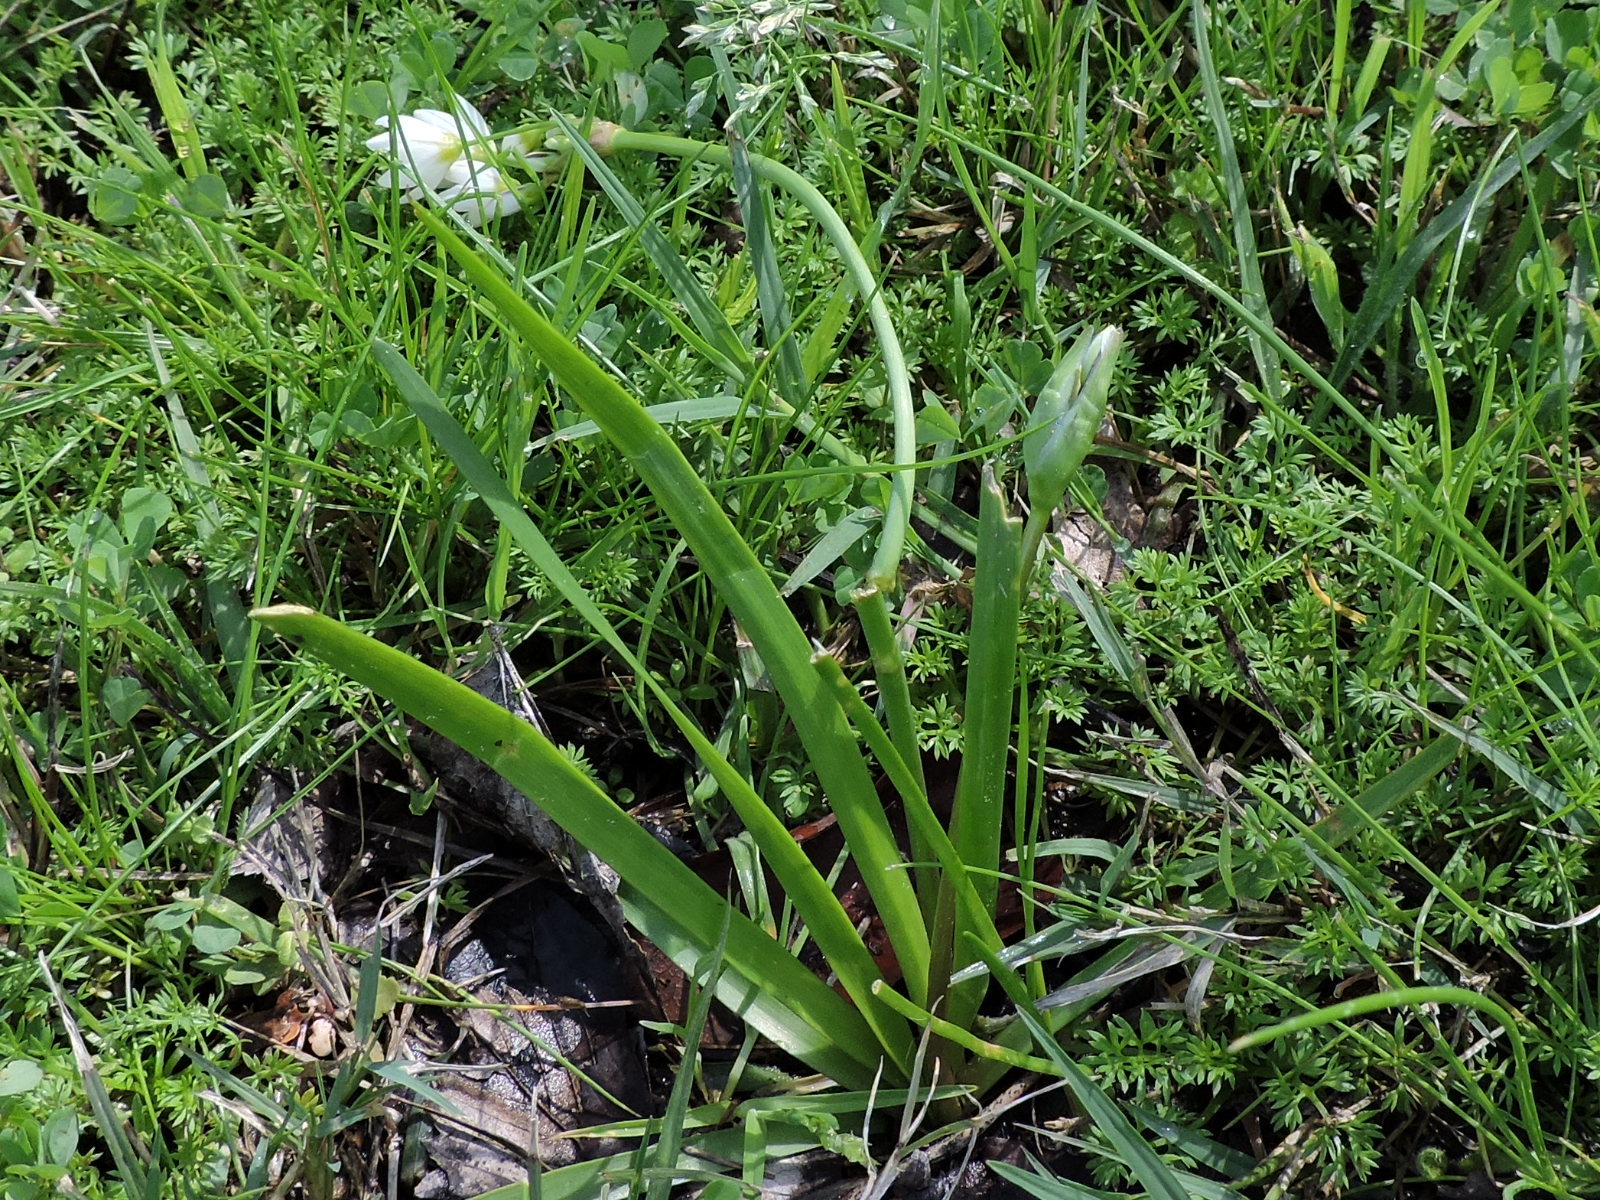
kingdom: Plantae
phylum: Tracheophyta
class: Liliopsida
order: Asparagales
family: Amaryllidaceae
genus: Nothoscordum
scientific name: Nothoscordum bivalve
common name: Crow-poison
